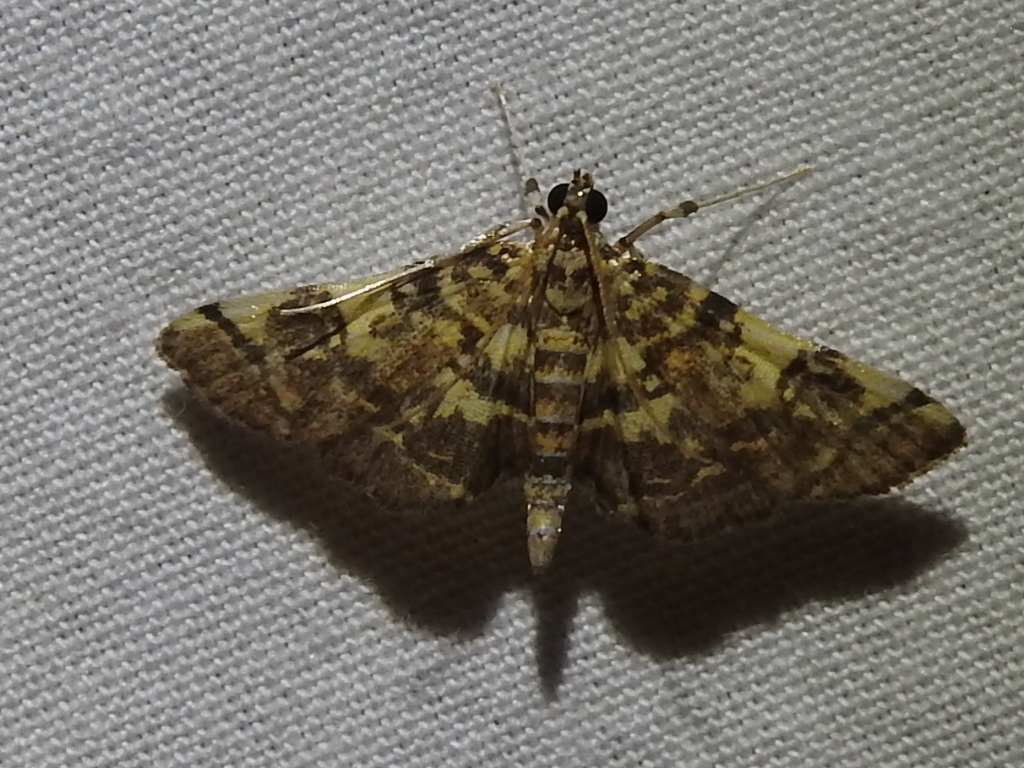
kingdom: Animalia
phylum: Arthropoda
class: Insecta
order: Lepidoptera
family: Crambidae
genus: Apogeshna
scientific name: Apogeshna stenialis
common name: Checkered apogeshna moth
